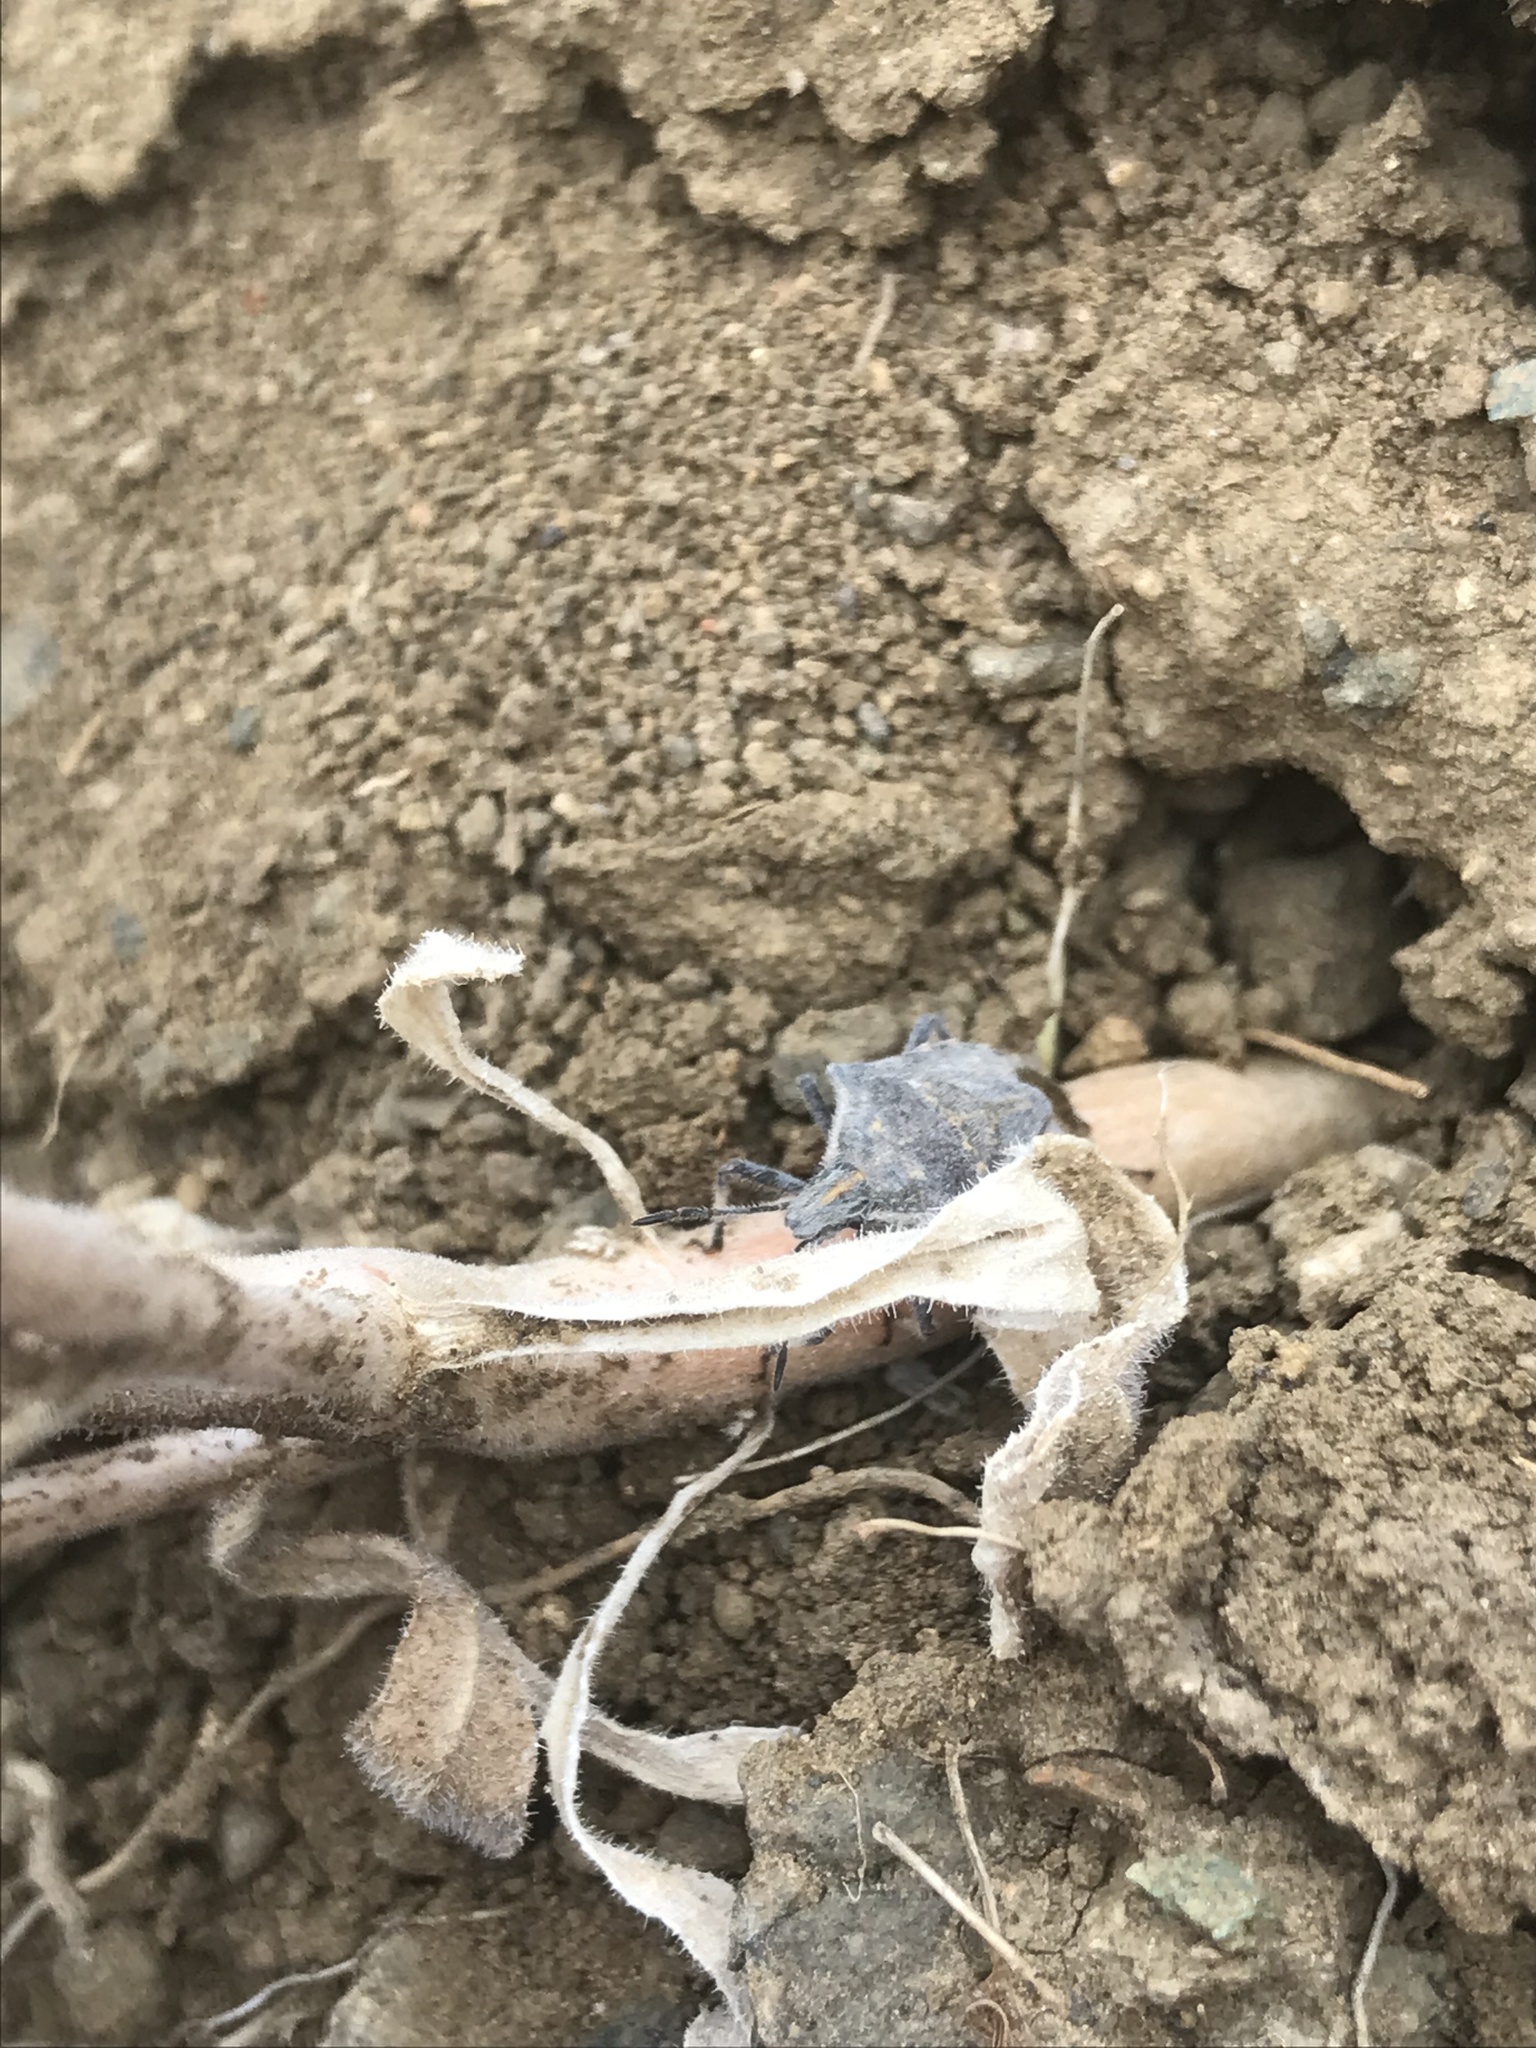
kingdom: Animalia
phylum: Arthropoda
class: Insecta
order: Hemiptera
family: Pentatomidae
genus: Prionosoma
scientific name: Prionosoma podopioides
